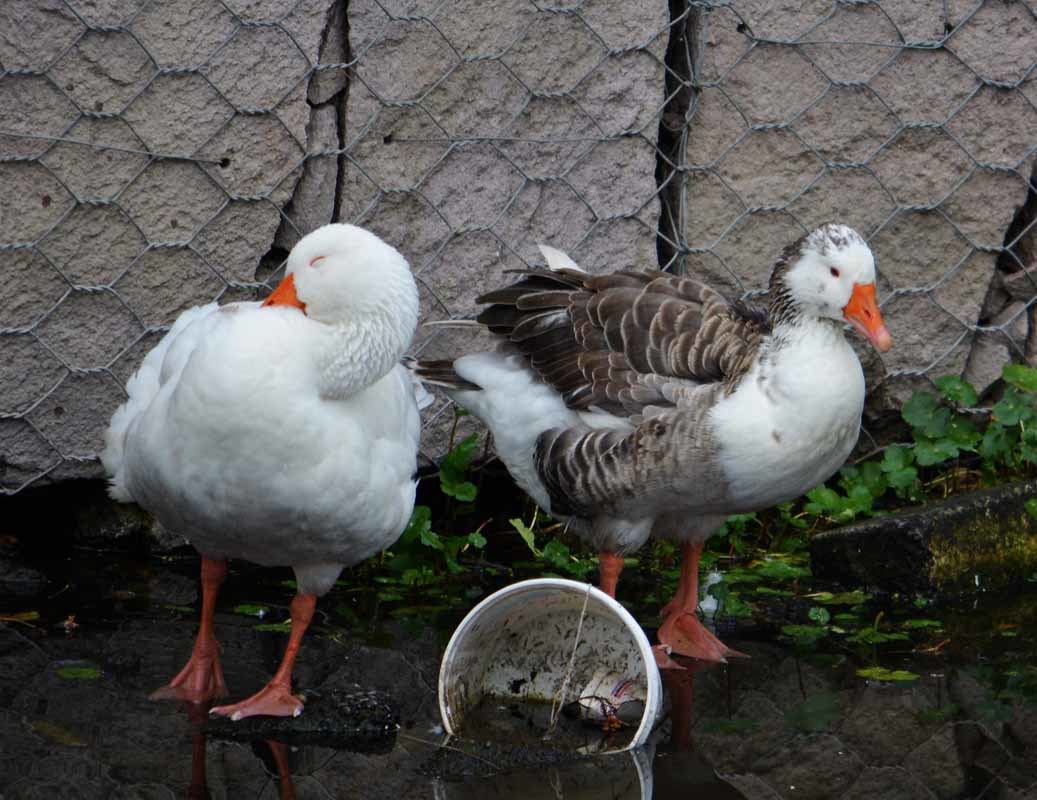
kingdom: Animalia
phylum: Chordata
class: Aves
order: Anseriformes
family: Anatidae
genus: Anser
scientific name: Anser anser
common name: Greylag goose
